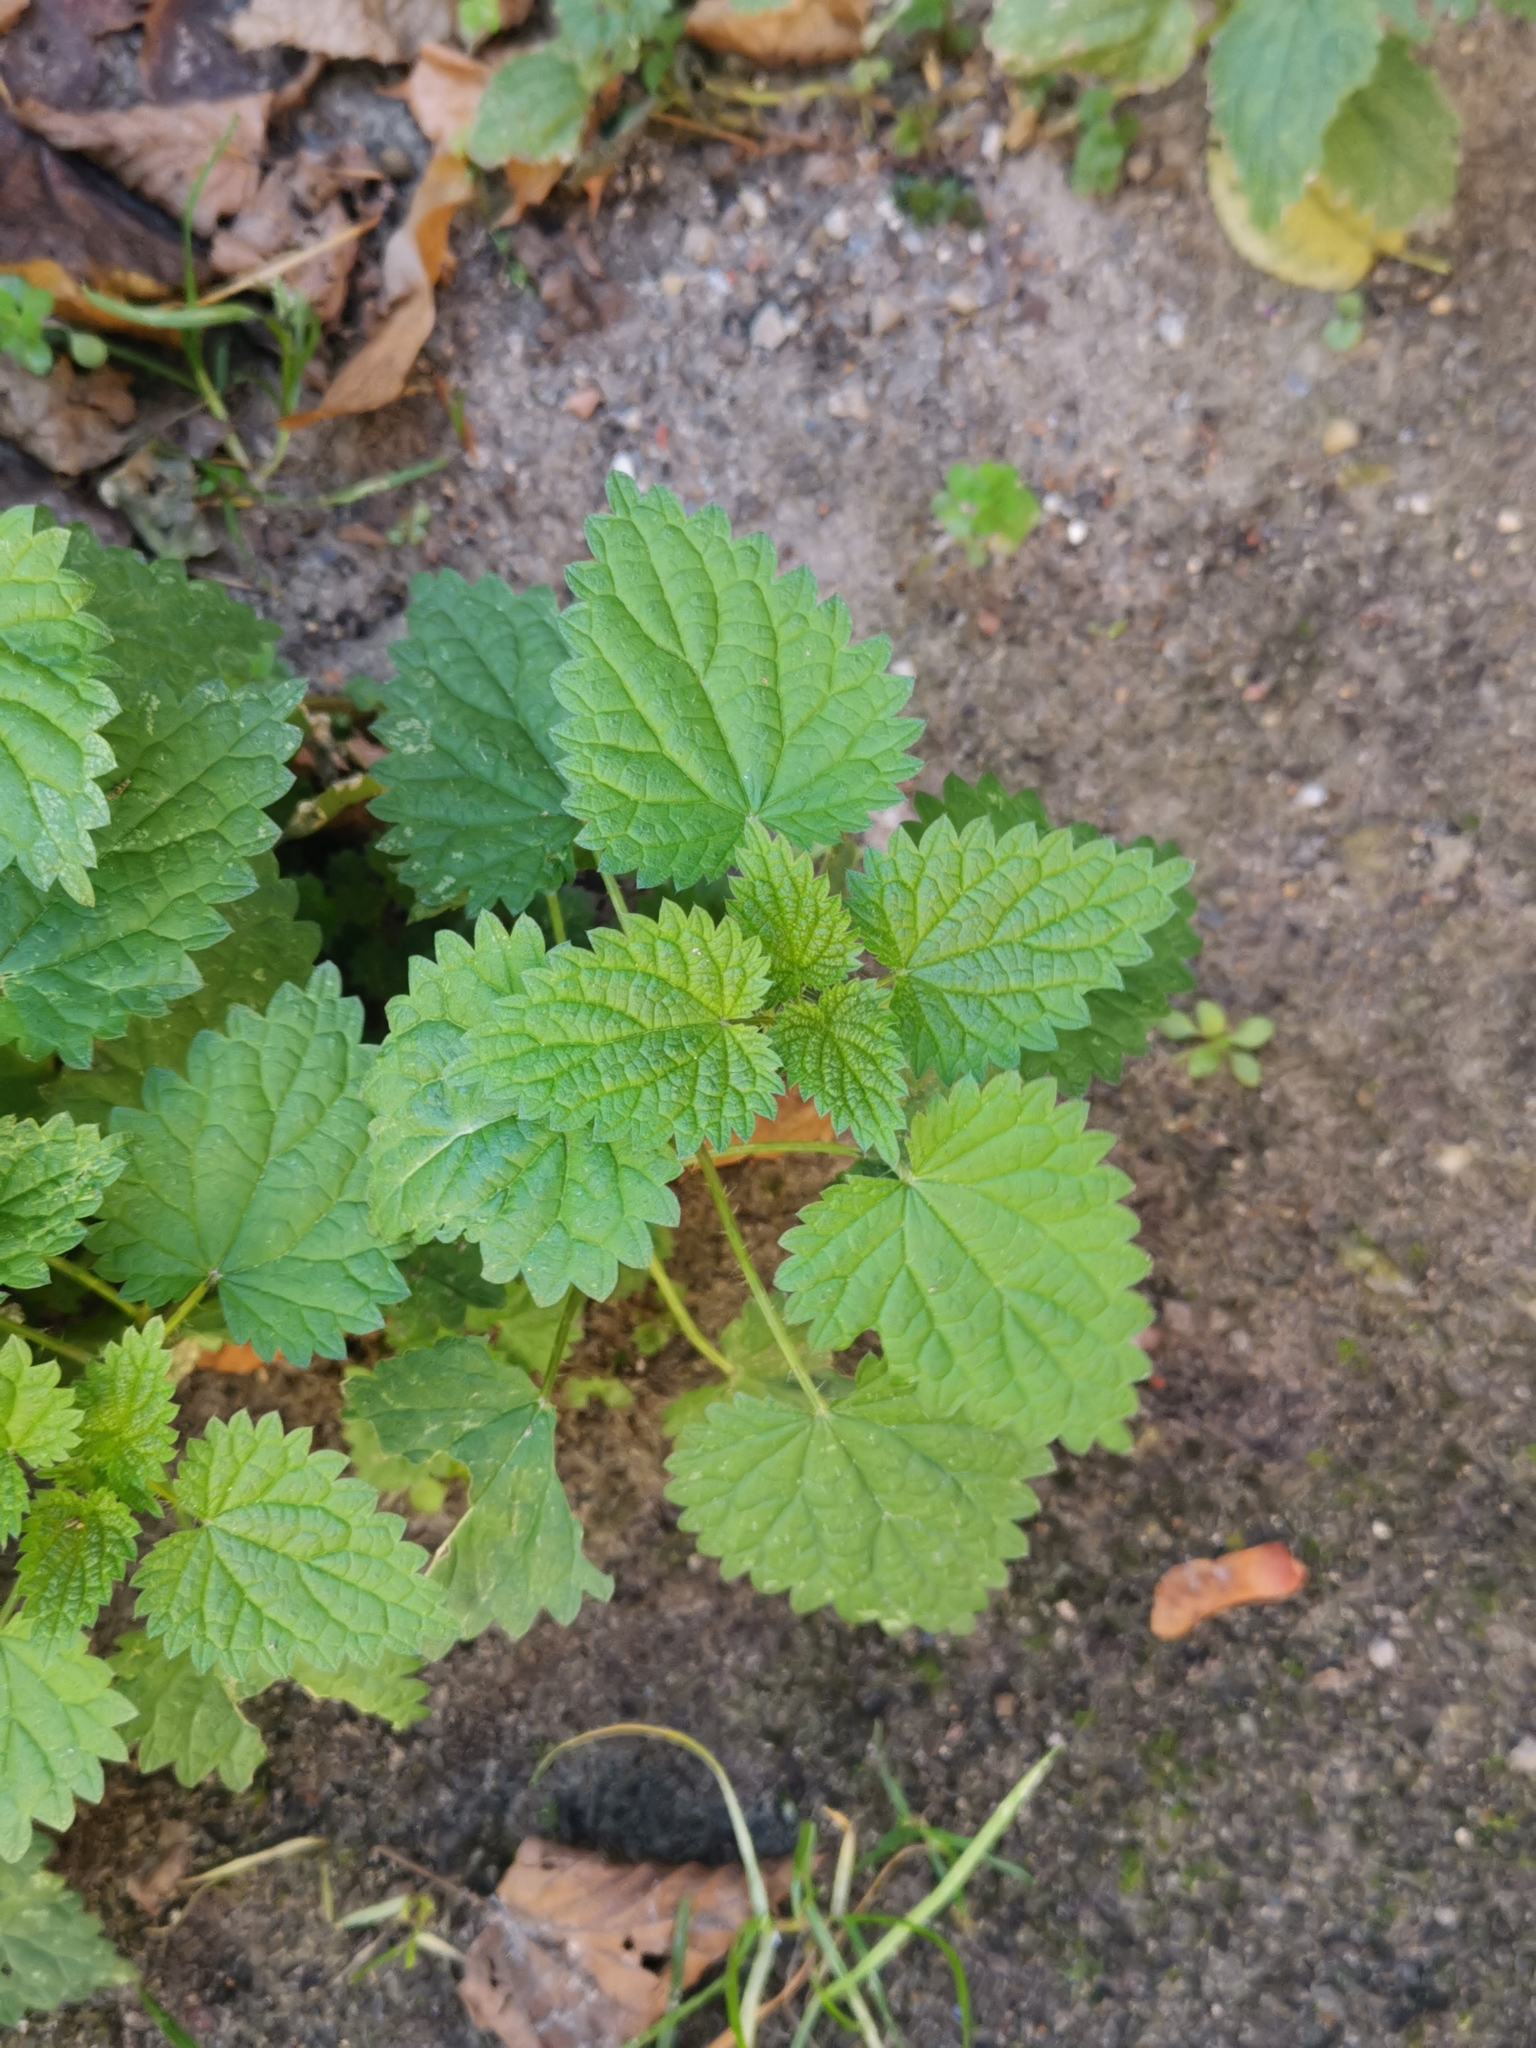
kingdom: Plantae
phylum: Tracheophyta
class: Magnoliopsida
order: Rosales
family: Urticaceae
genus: Urtica
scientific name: Urtica dioica
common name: Common nettle
